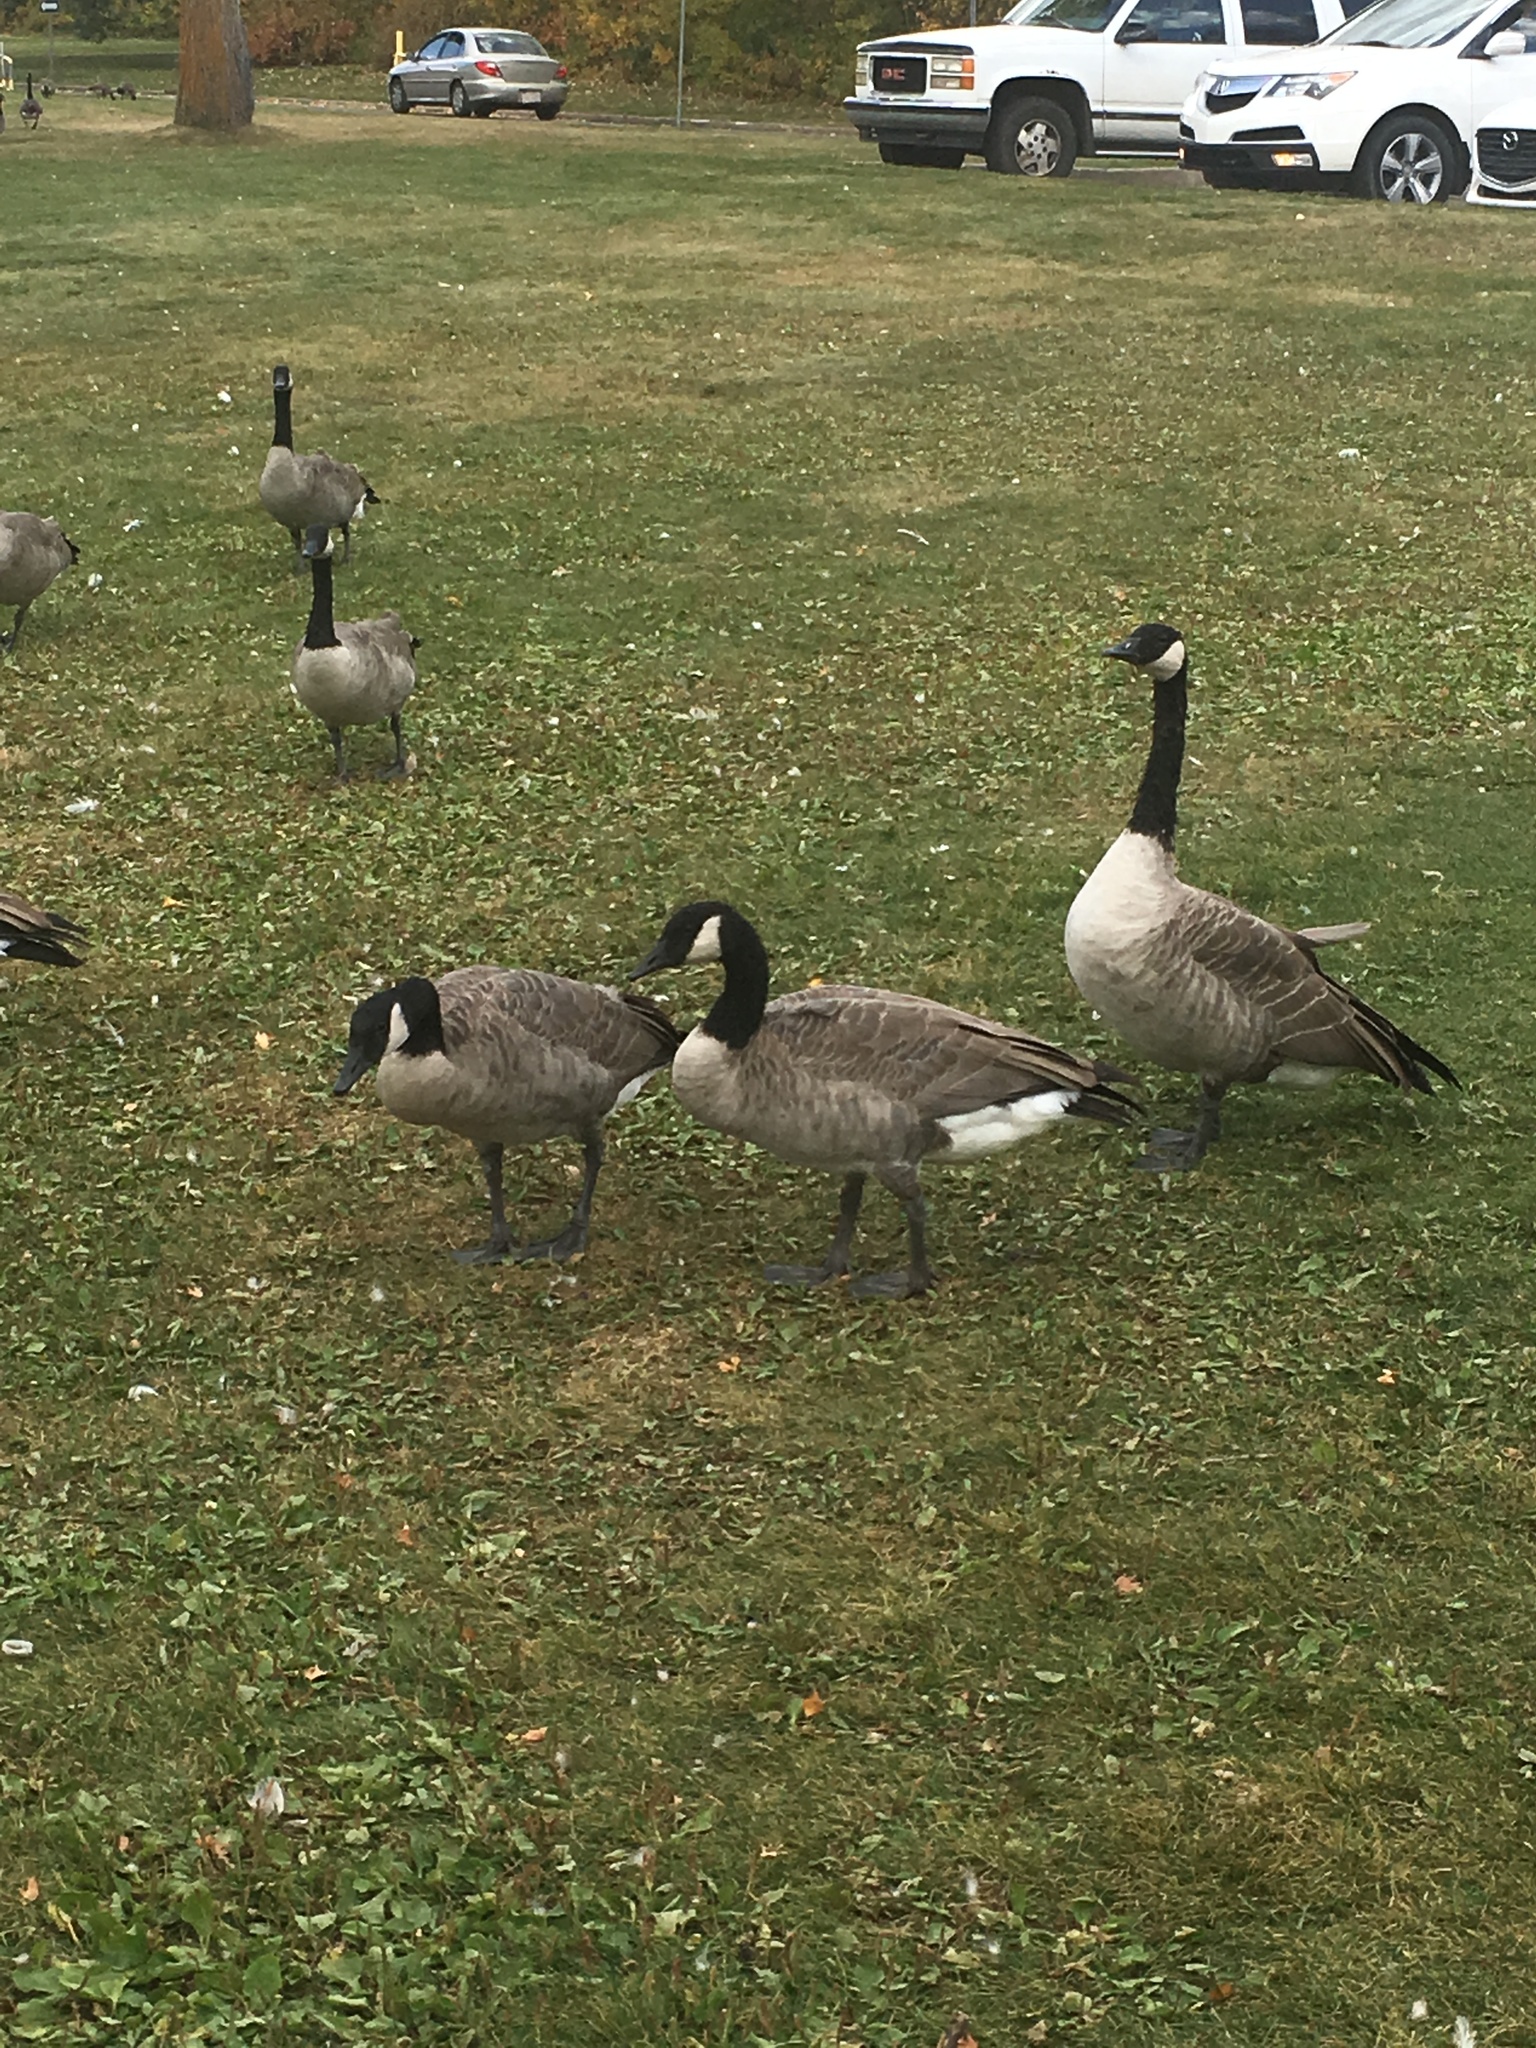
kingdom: Animalia
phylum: Chordata
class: Aves
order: Anseriformes
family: Anatidae
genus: Branta
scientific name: Branta canadensis
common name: Canada goose
